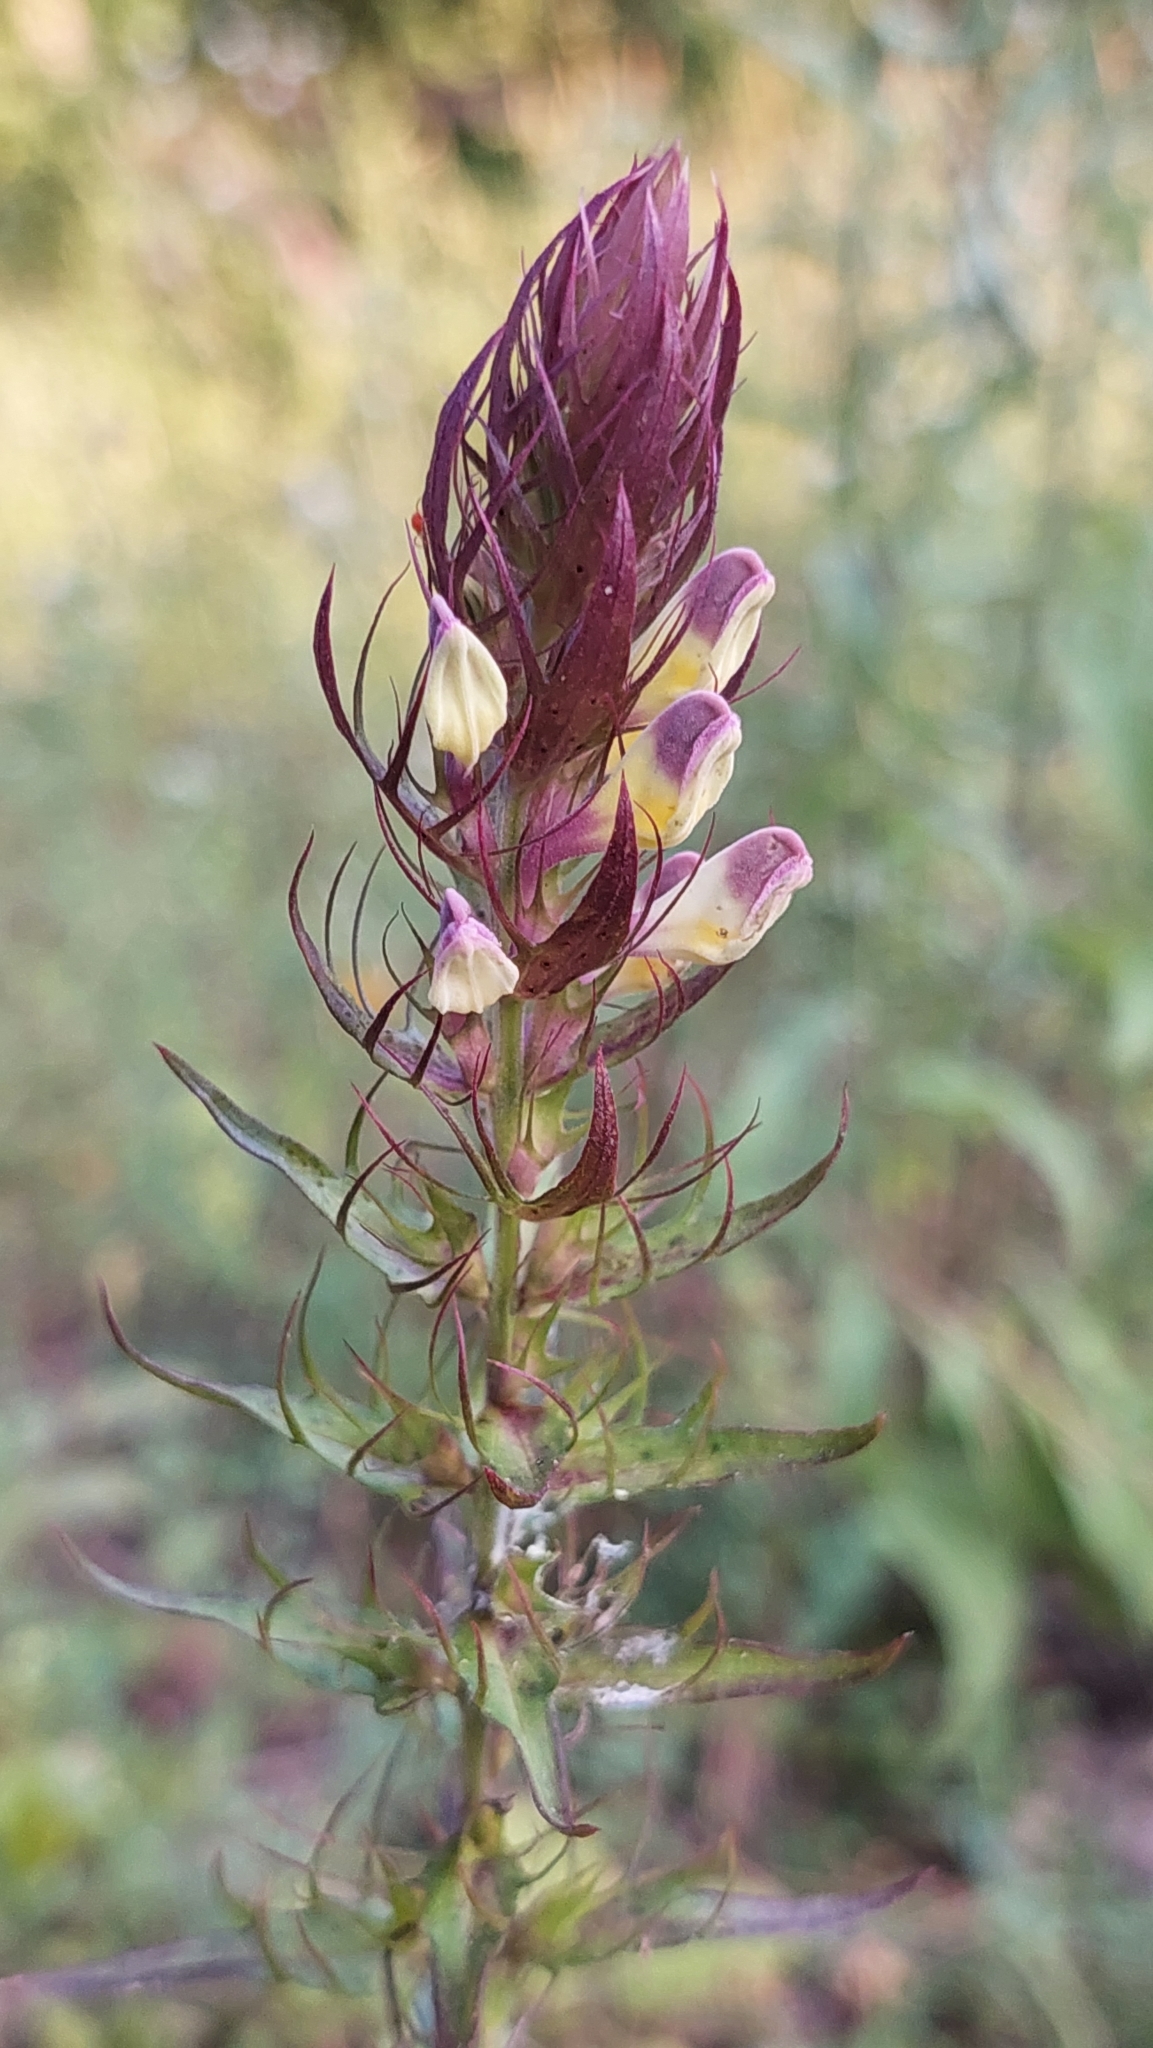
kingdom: Plantae
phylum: Tracheophyta
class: Magnoliopsida
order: Lamiales
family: Orobanchaceae
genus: Melampyrum
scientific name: Melampyrum arvense
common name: Field cow-wheat
